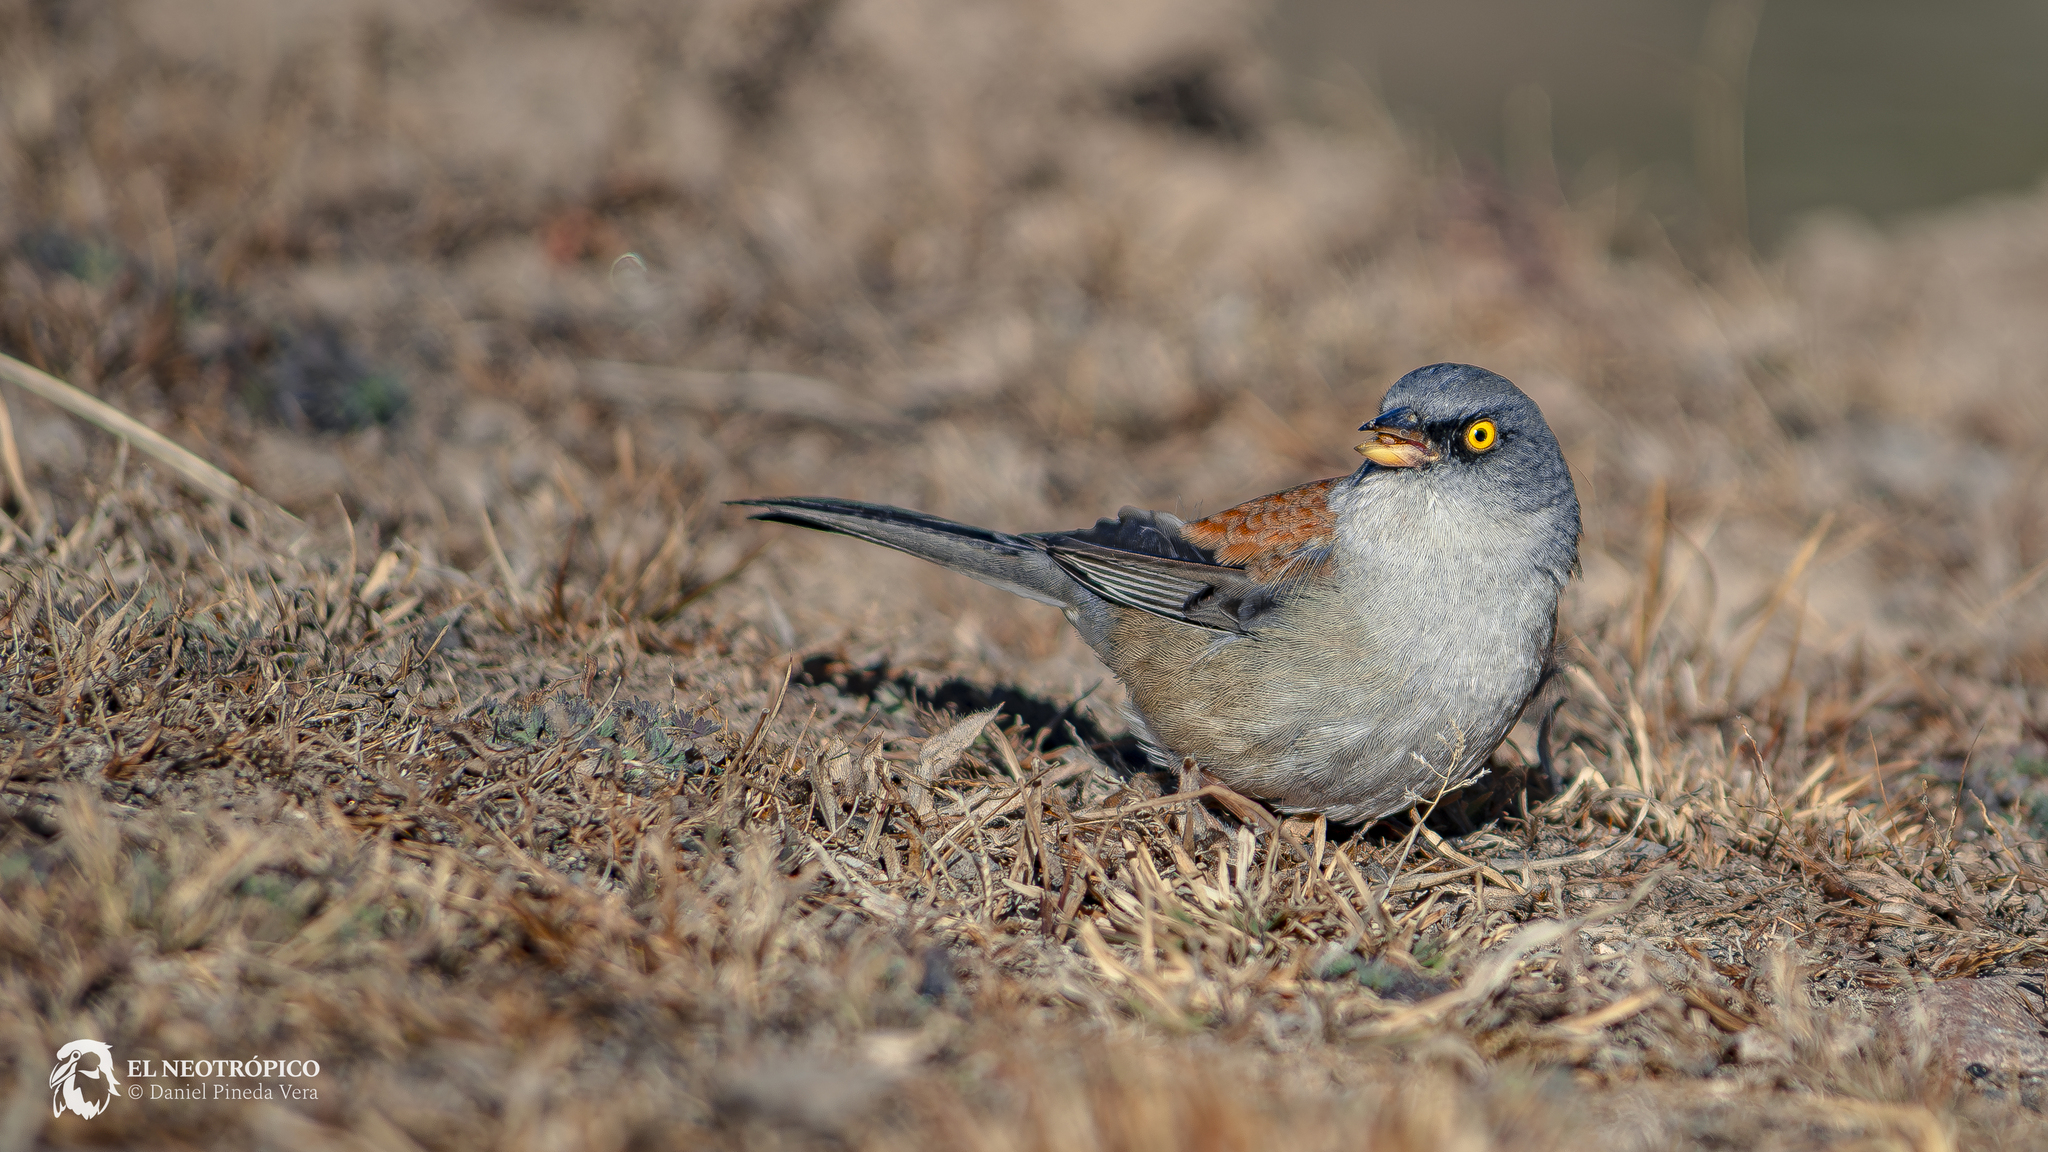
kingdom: Animalia
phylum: Chordata
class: Aves
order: Passeriformes
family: Passerellidae
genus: Junco
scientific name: Junco phaeonotus
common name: Yellow-eyed junco
